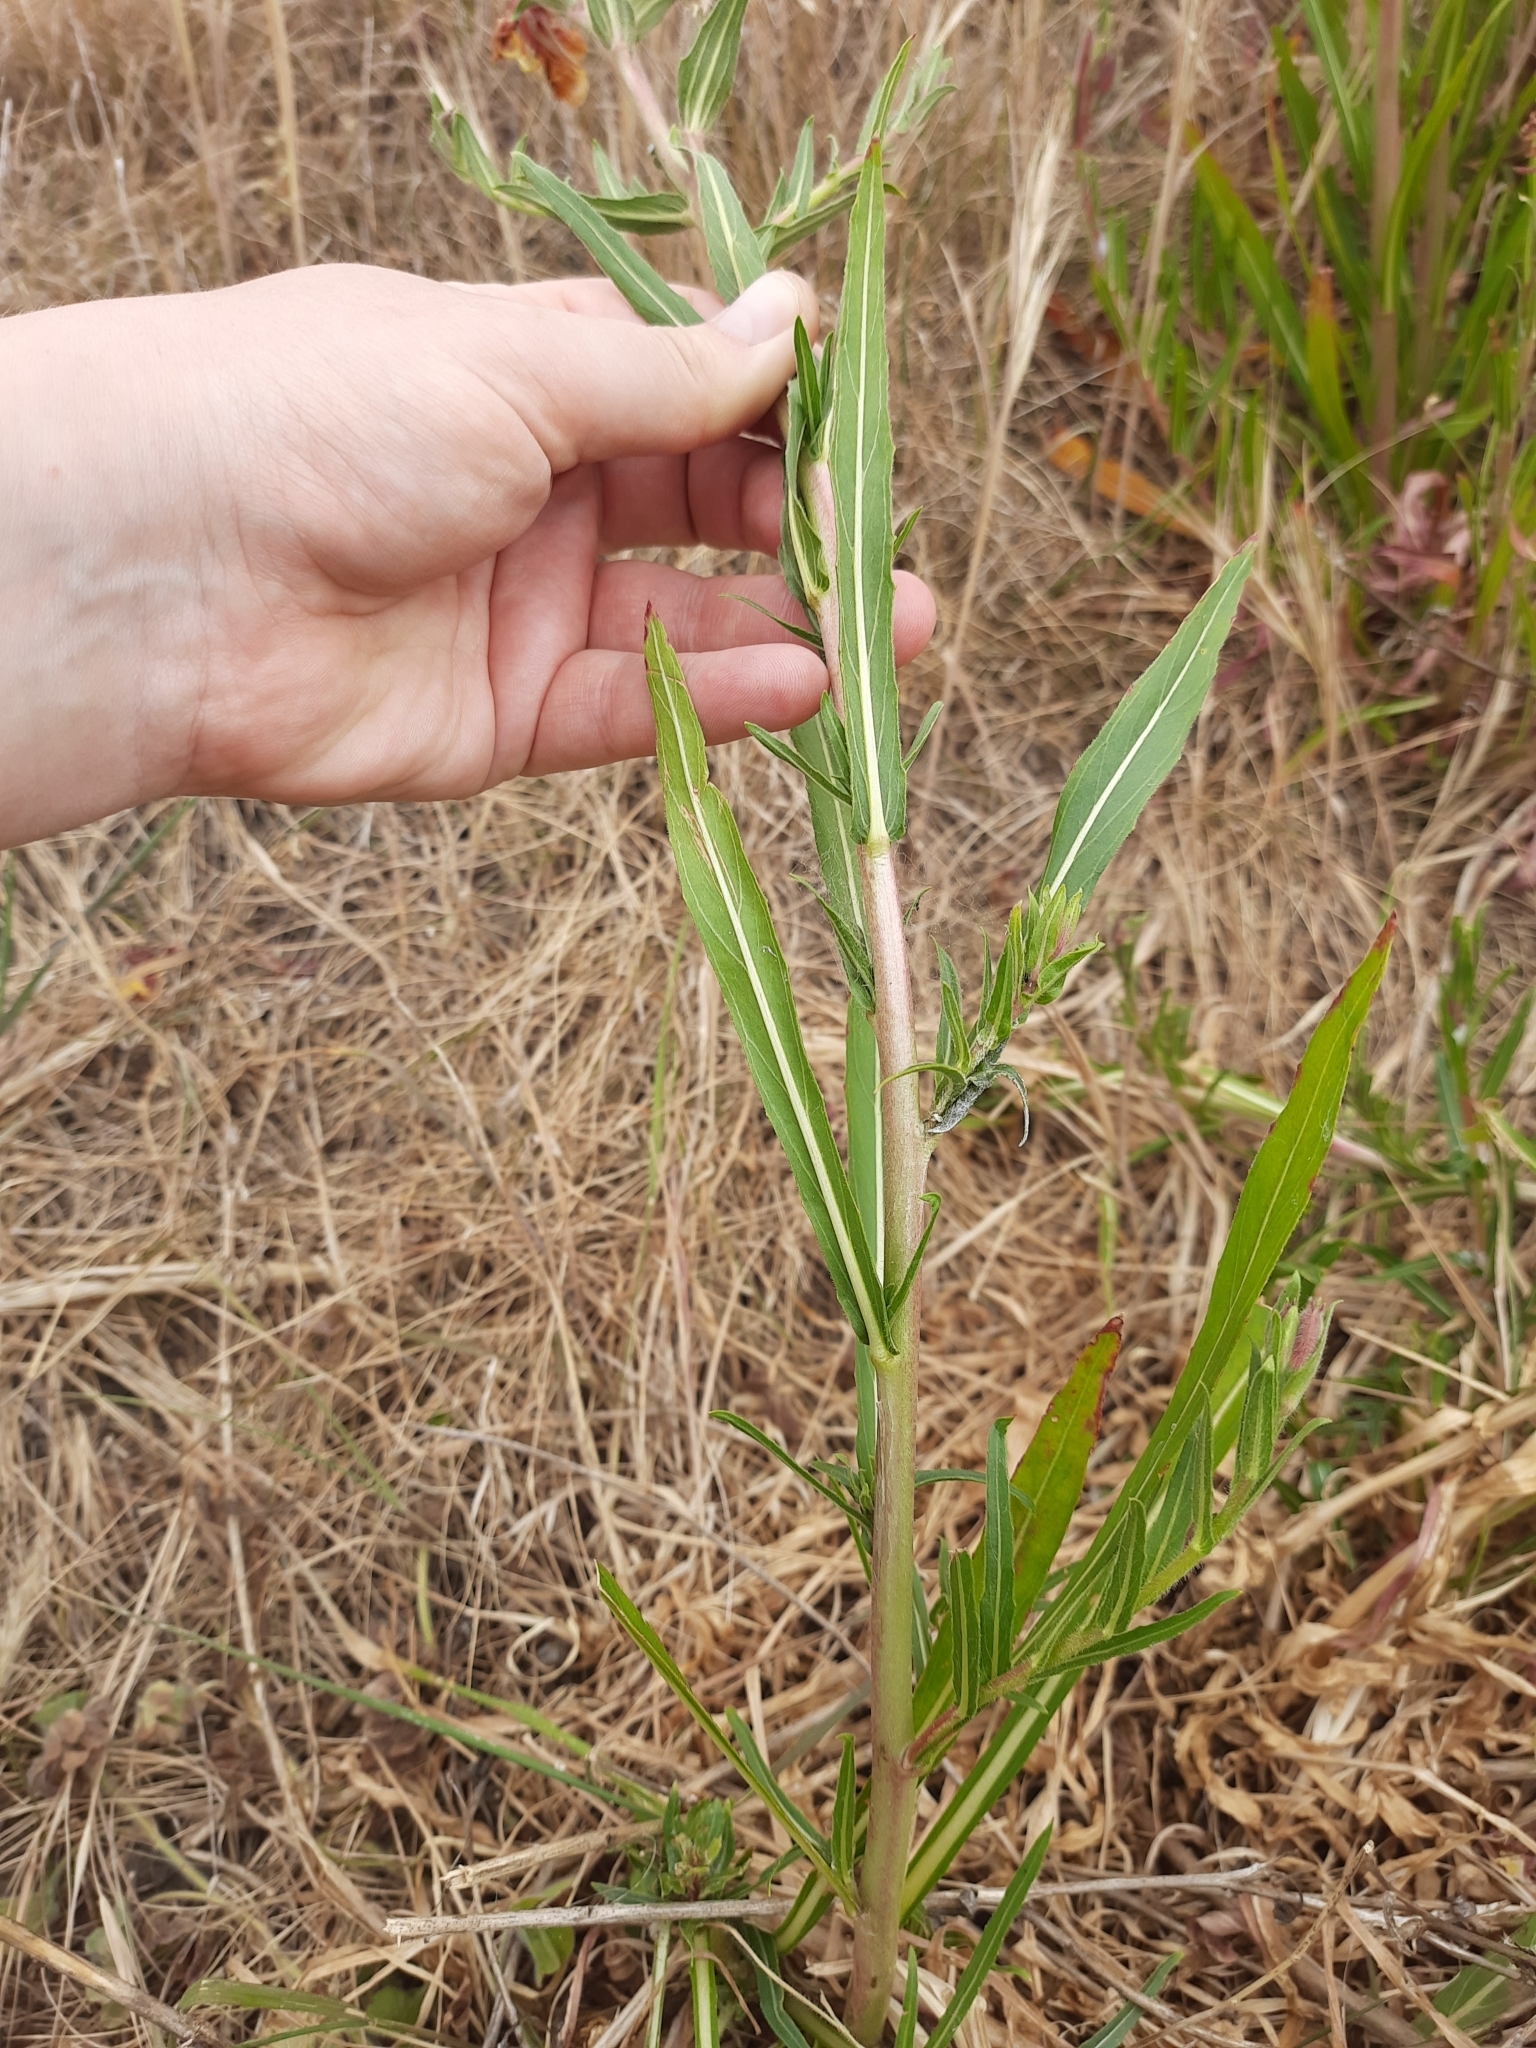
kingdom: Plantae
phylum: Tracheophyta
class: Magnoliopsida
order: Myrtales
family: Onagraceae
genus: Oenothera
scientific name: Oenothera stricta
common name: Fragrant evening-primrose
